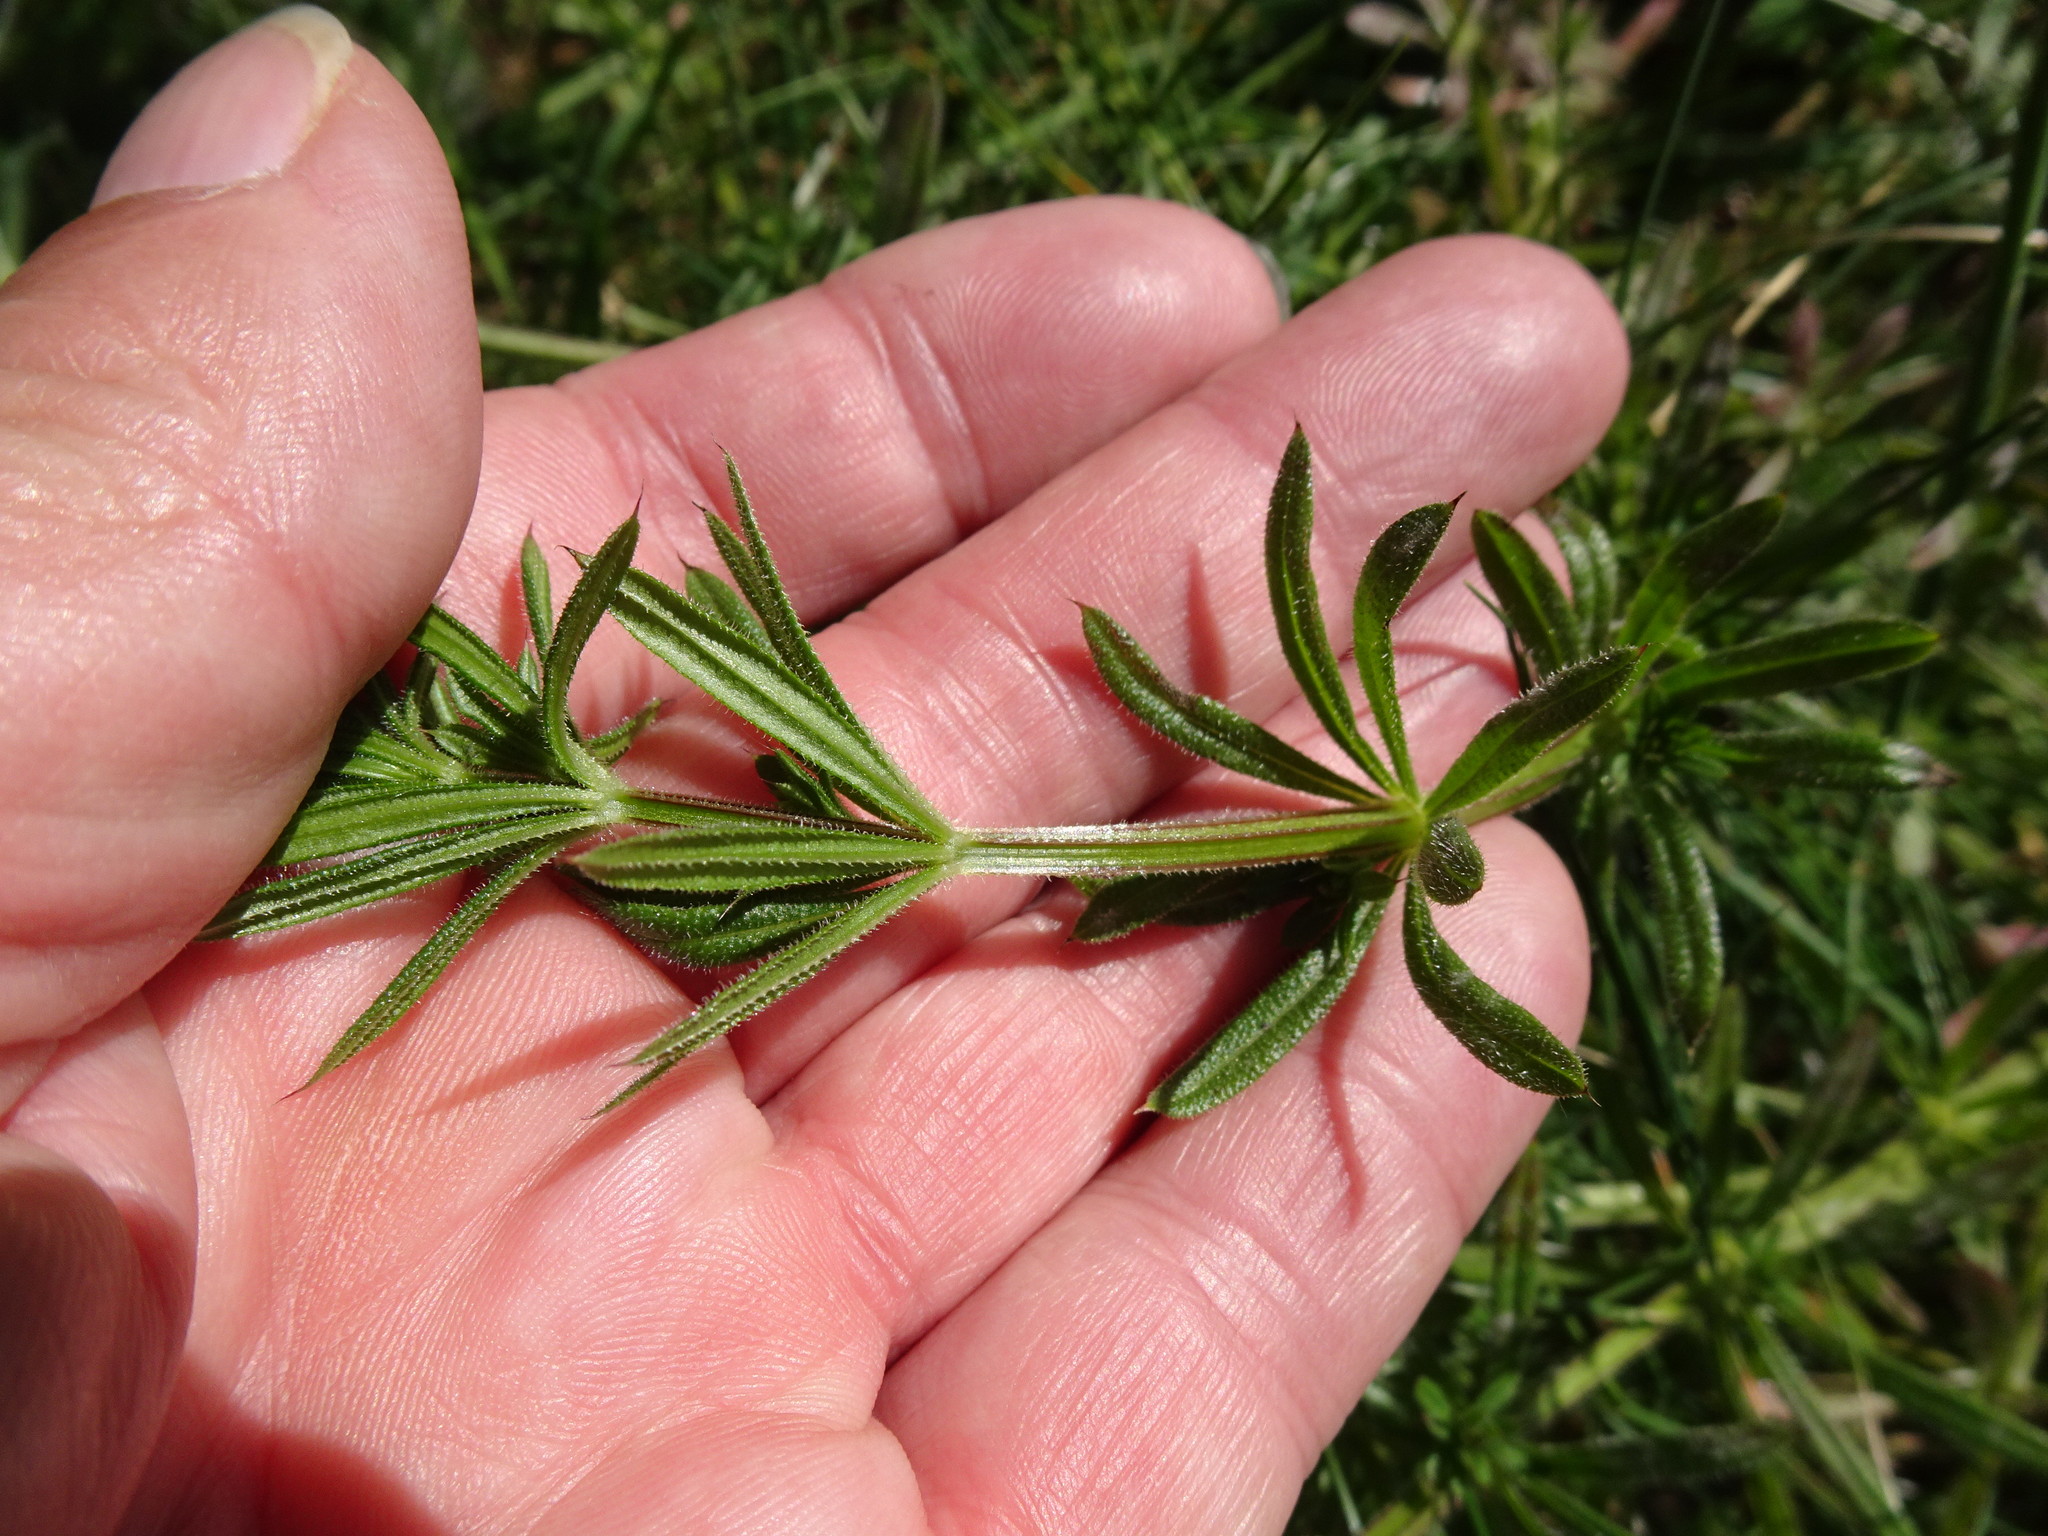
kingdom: Plantae
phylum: Tracheophyta
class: Magnoliopsida
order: Gentianales
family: Rubiaceae
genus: Galium
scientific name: Galium aparine
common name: Cleavers
